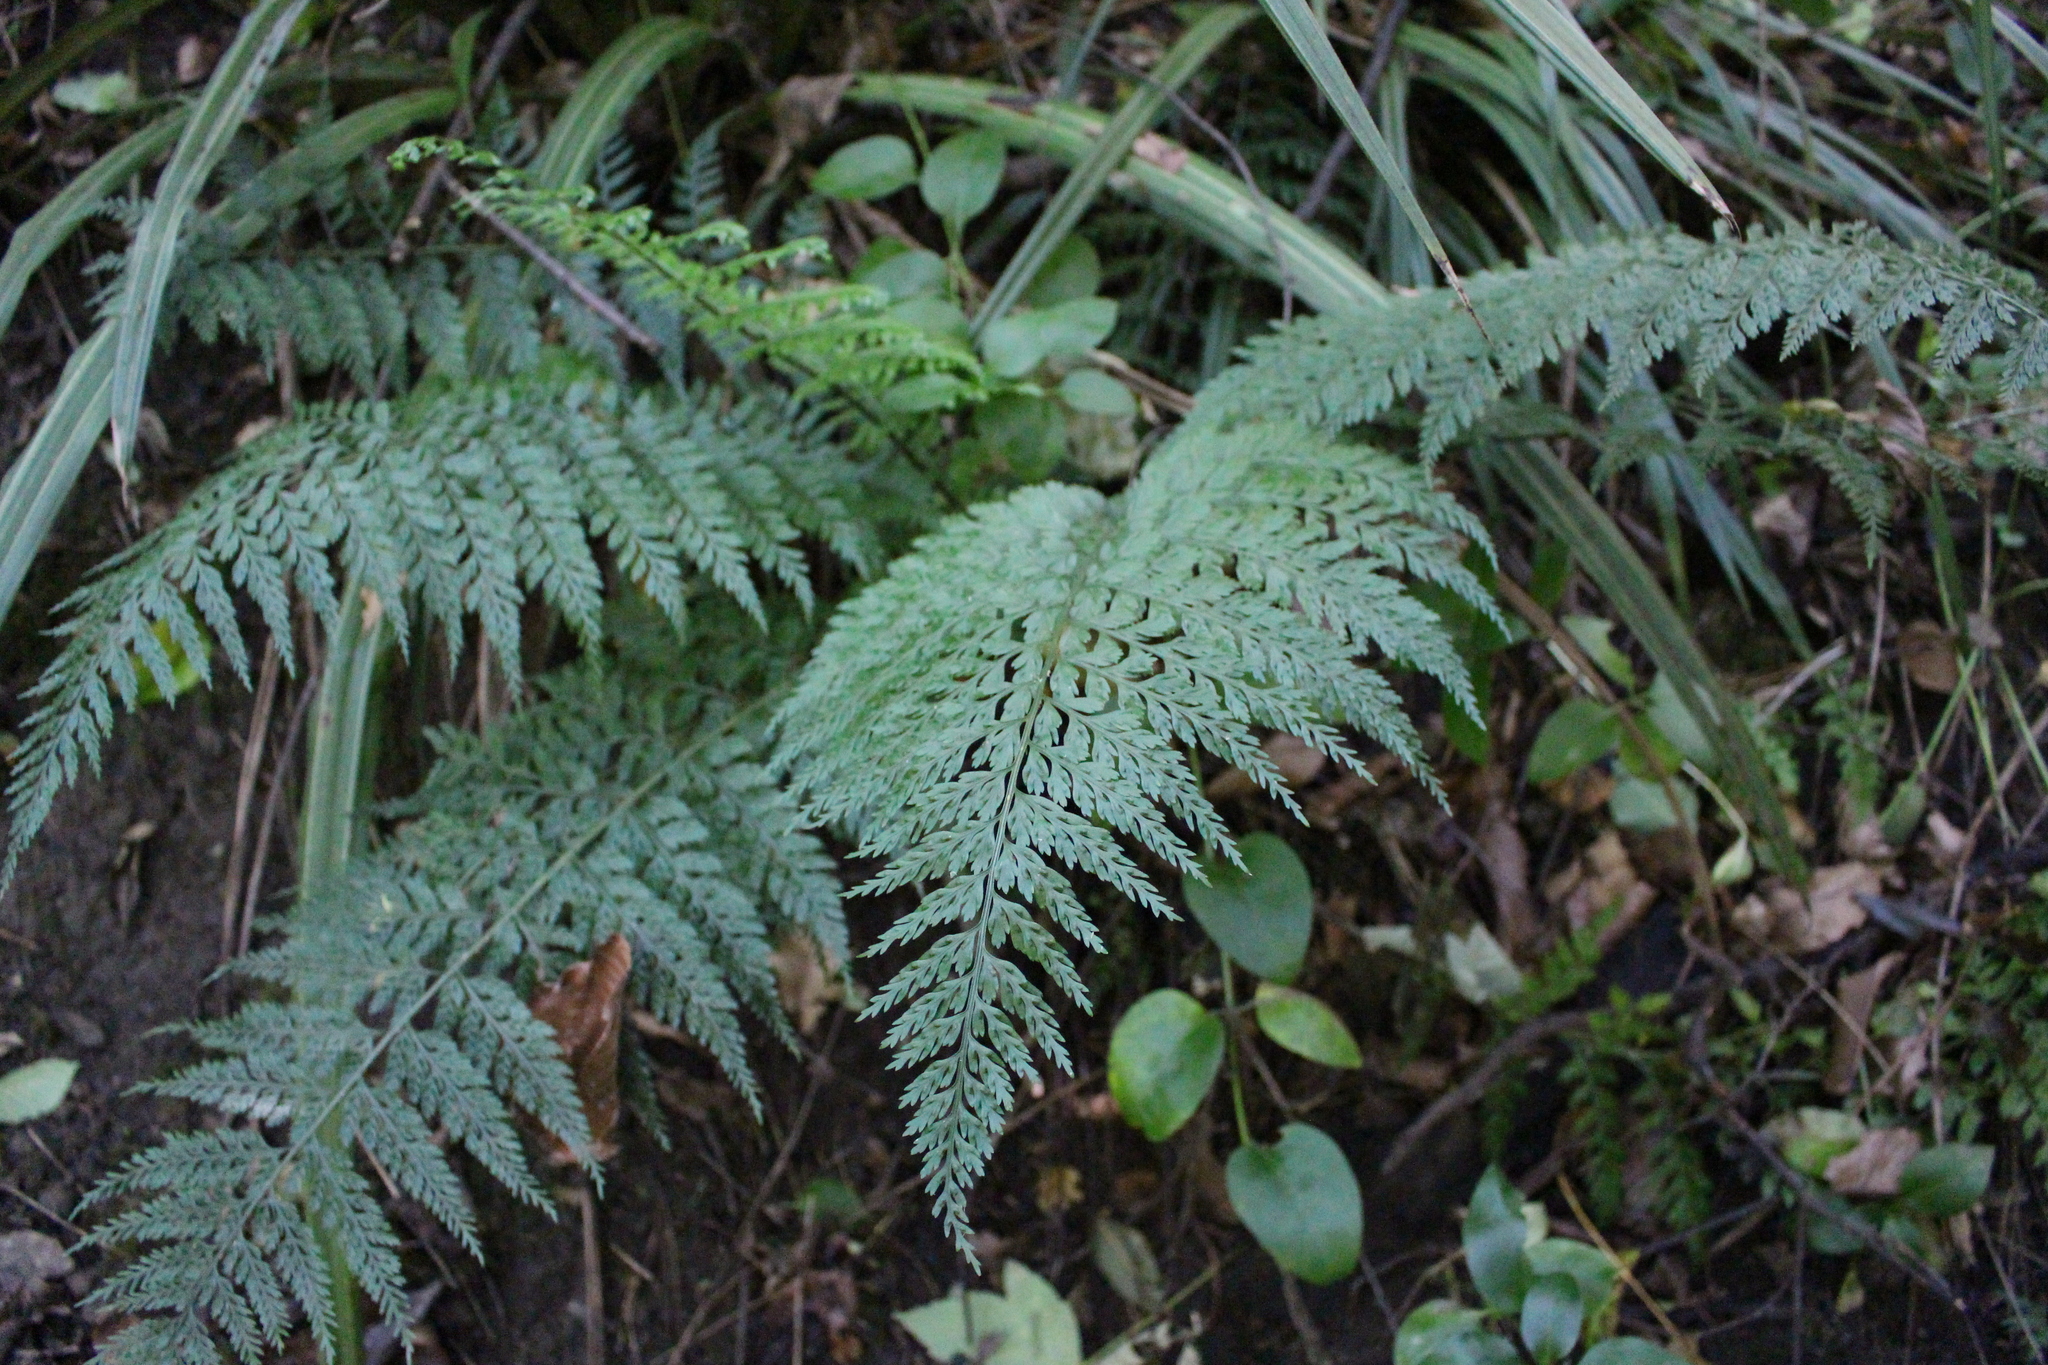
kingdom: Plantae
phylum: Tracheophyta
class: Polypodiopsida
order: Polypodiales
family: Aspleniaceae
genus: Asplenium
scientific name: Asplenium
